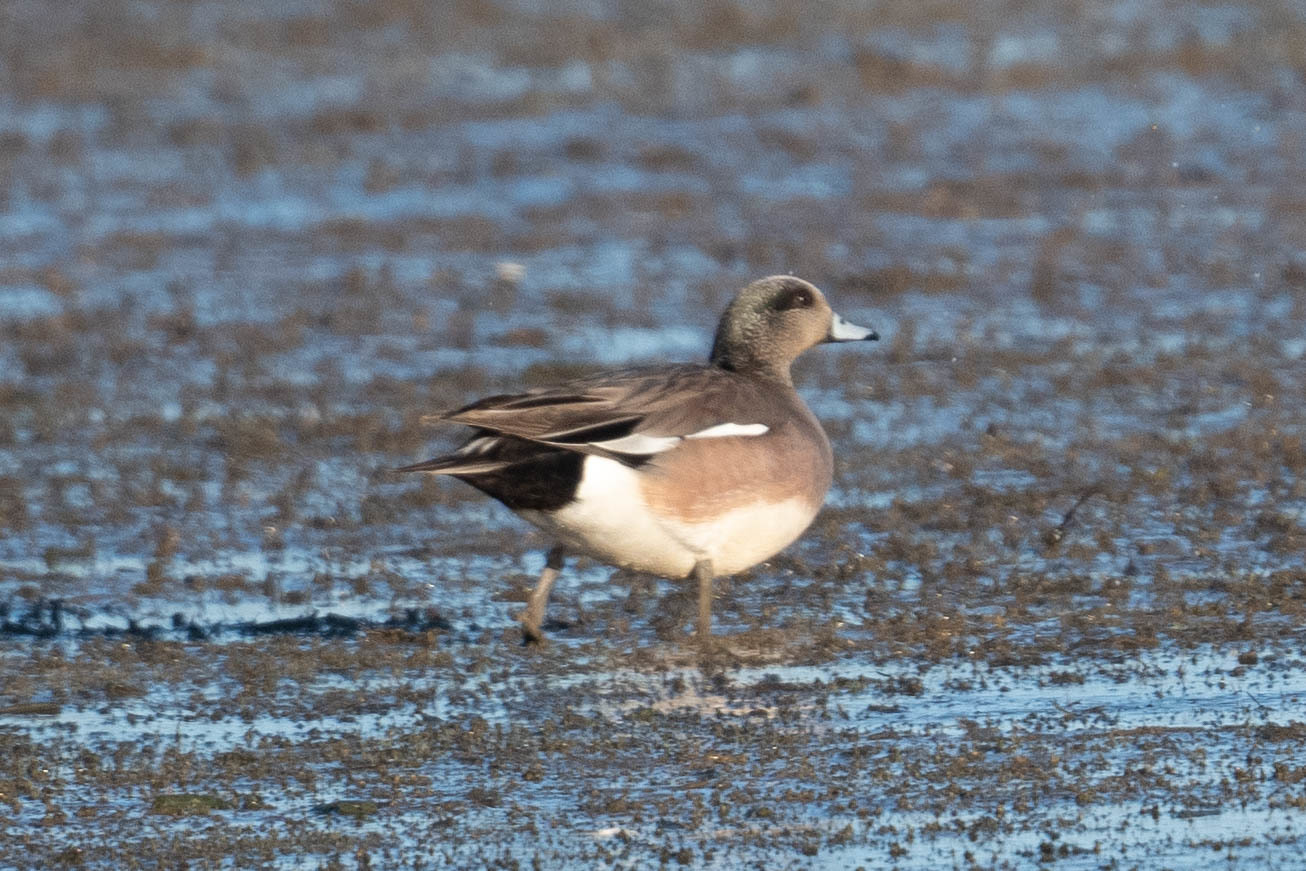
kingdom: Animalia
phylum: Chordata
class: Aves
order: Anseriformes
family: Anatidae
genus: Mareca
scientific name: Mareca americana
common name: American wigeon
